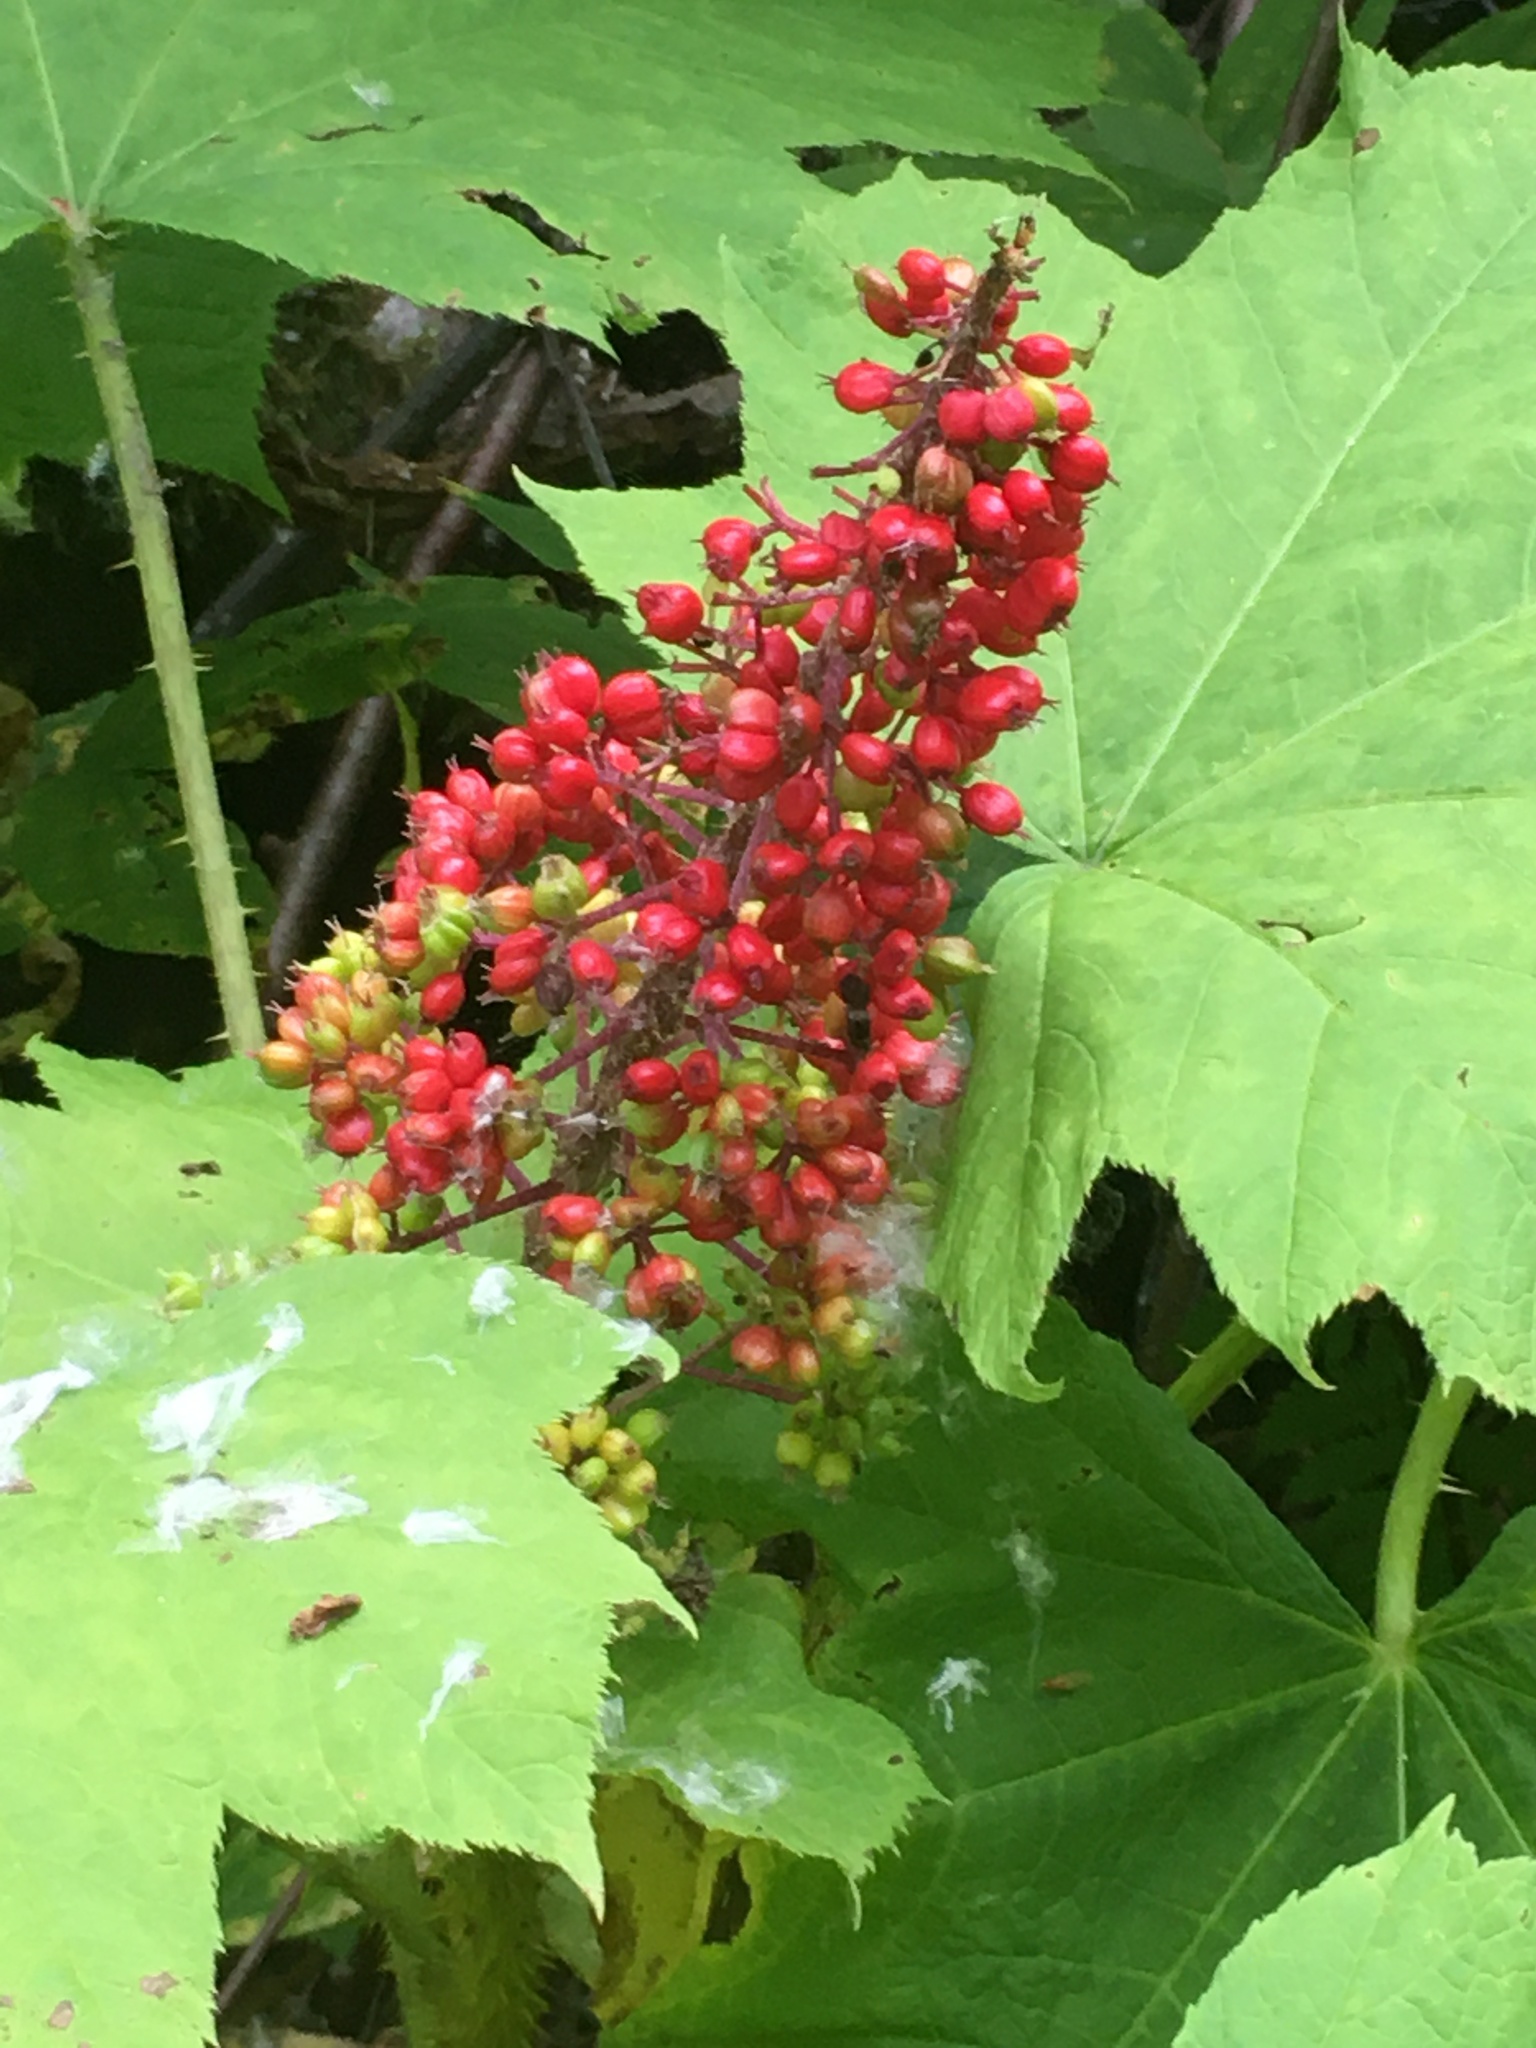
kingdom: Plantae
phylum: Tracheophyta
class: Magnoliopsida
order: Apiales
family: Araliaceae
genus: Oplopanax
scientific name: Oplopanax horridus
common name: Devil's walking-stick
